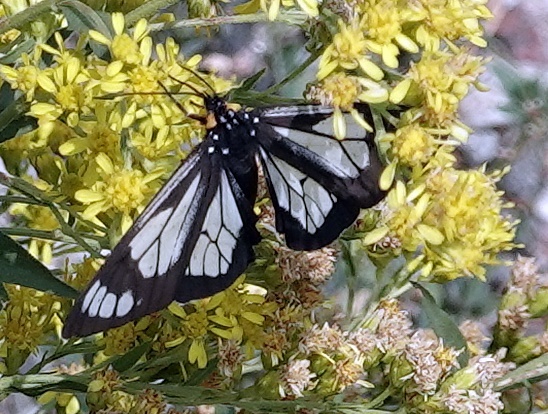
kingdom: Animalia
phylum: Arthropoda
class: Insecta
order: Lepidoptera
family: Erebidae
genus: Gnophaela
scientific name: Gnophaela vermiculata
